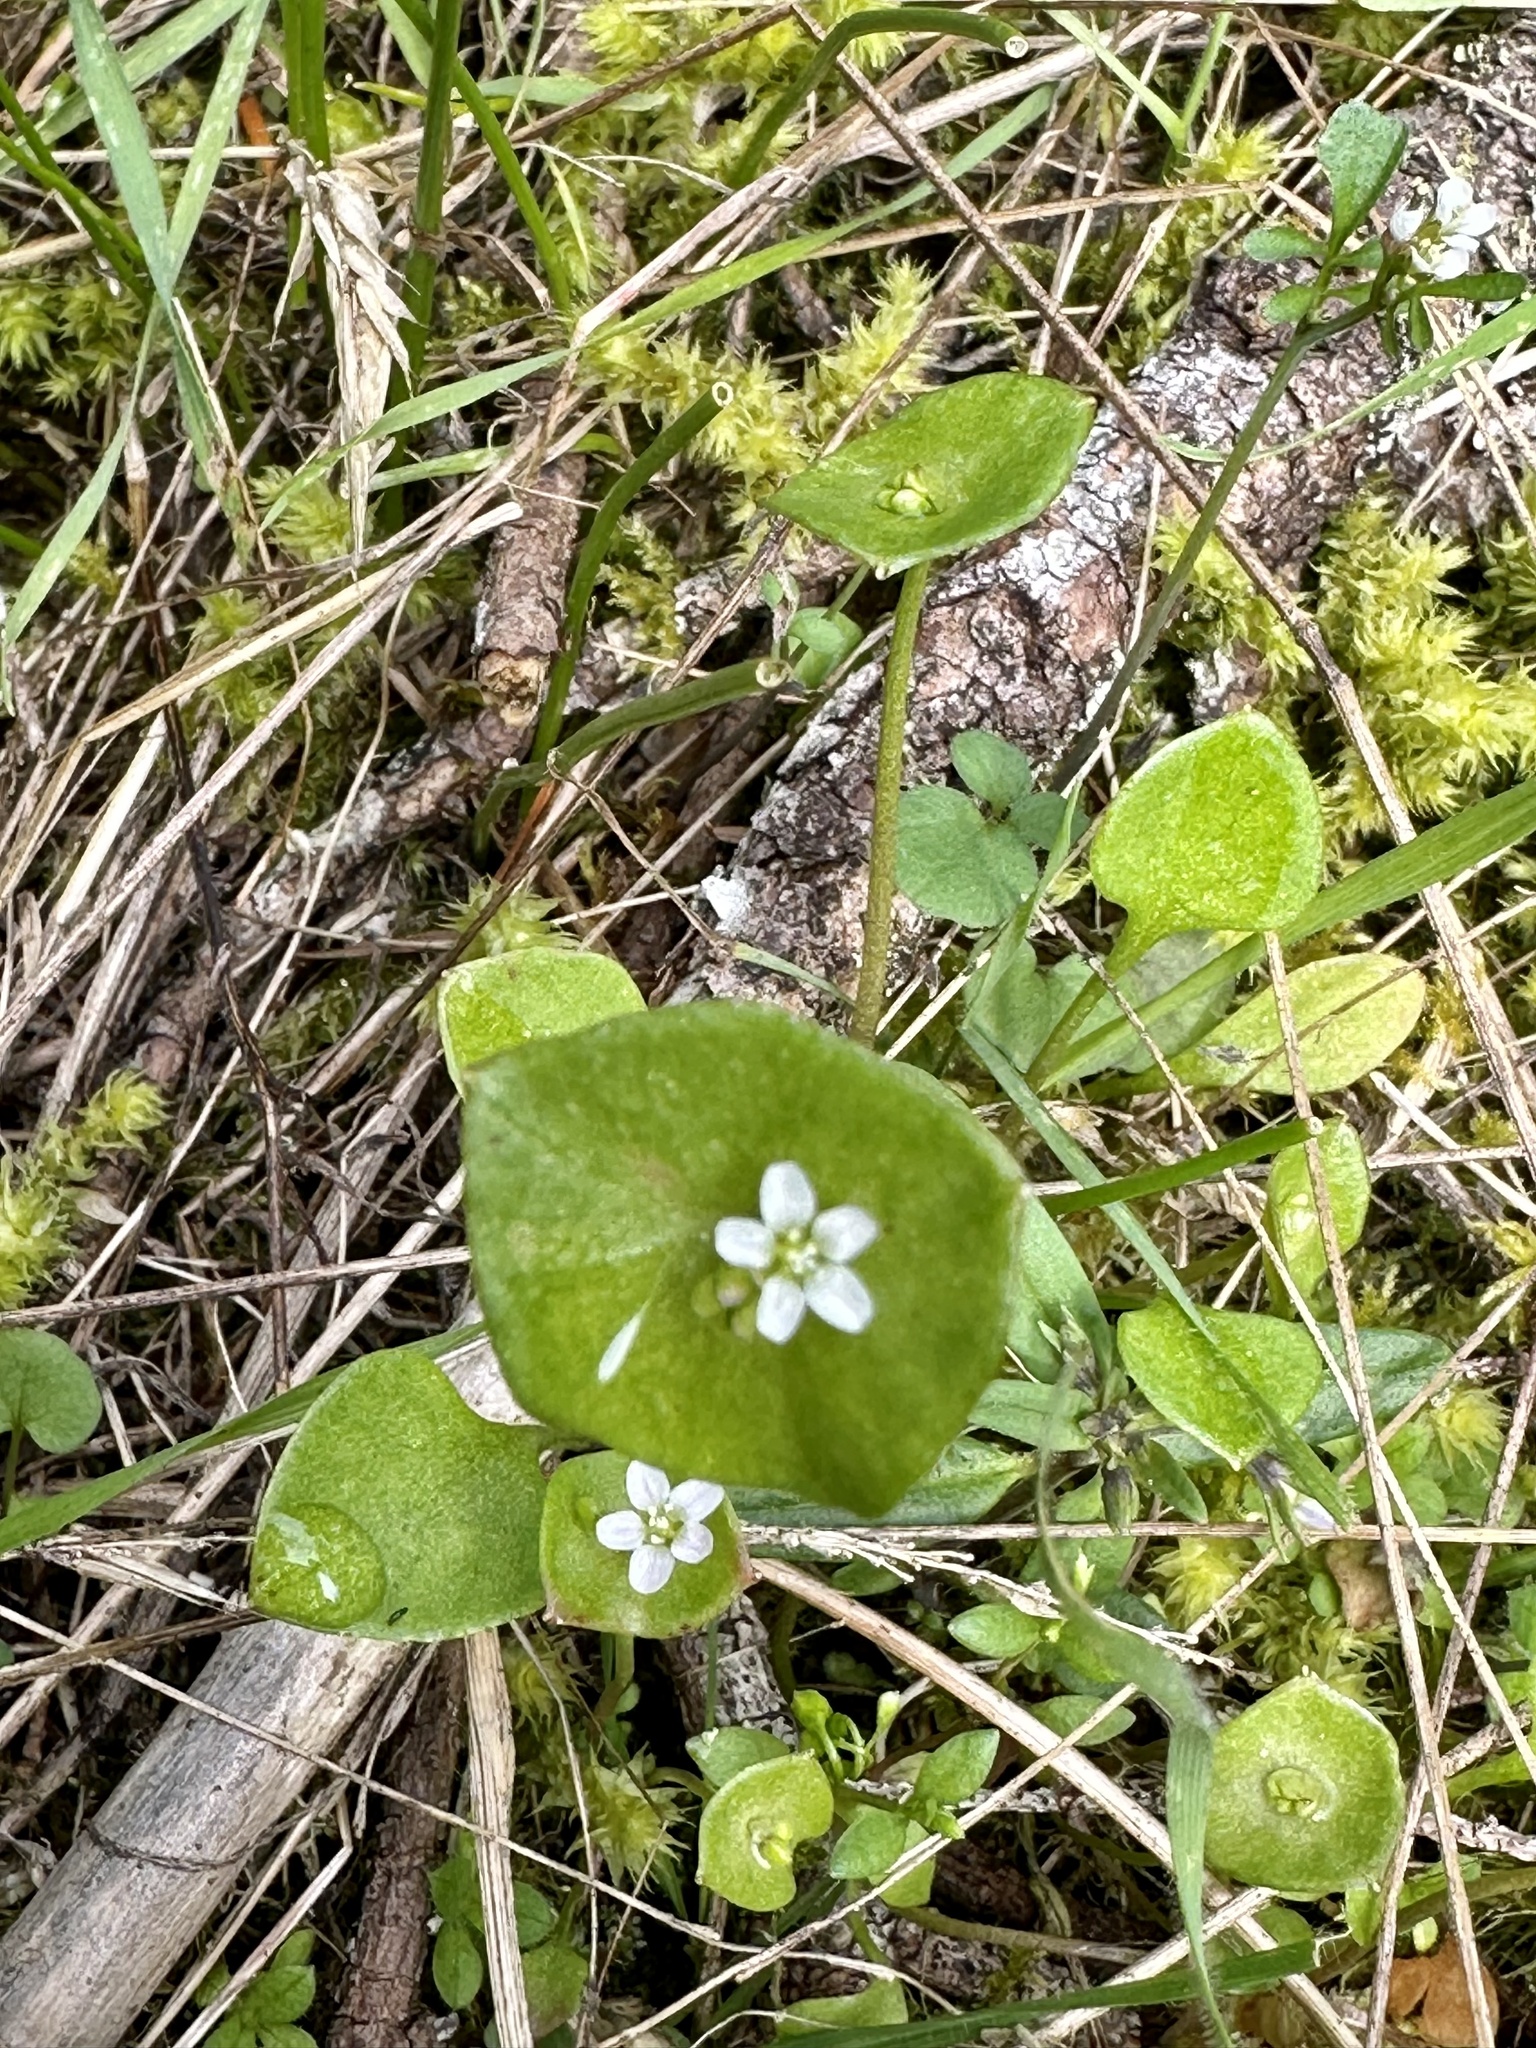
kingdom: Plantae
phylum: Tracheophyta
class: Magnoliopsida
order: Caryophyllales
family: Montiaceae
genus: Claytonia
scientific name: Claytonia perfoliata
